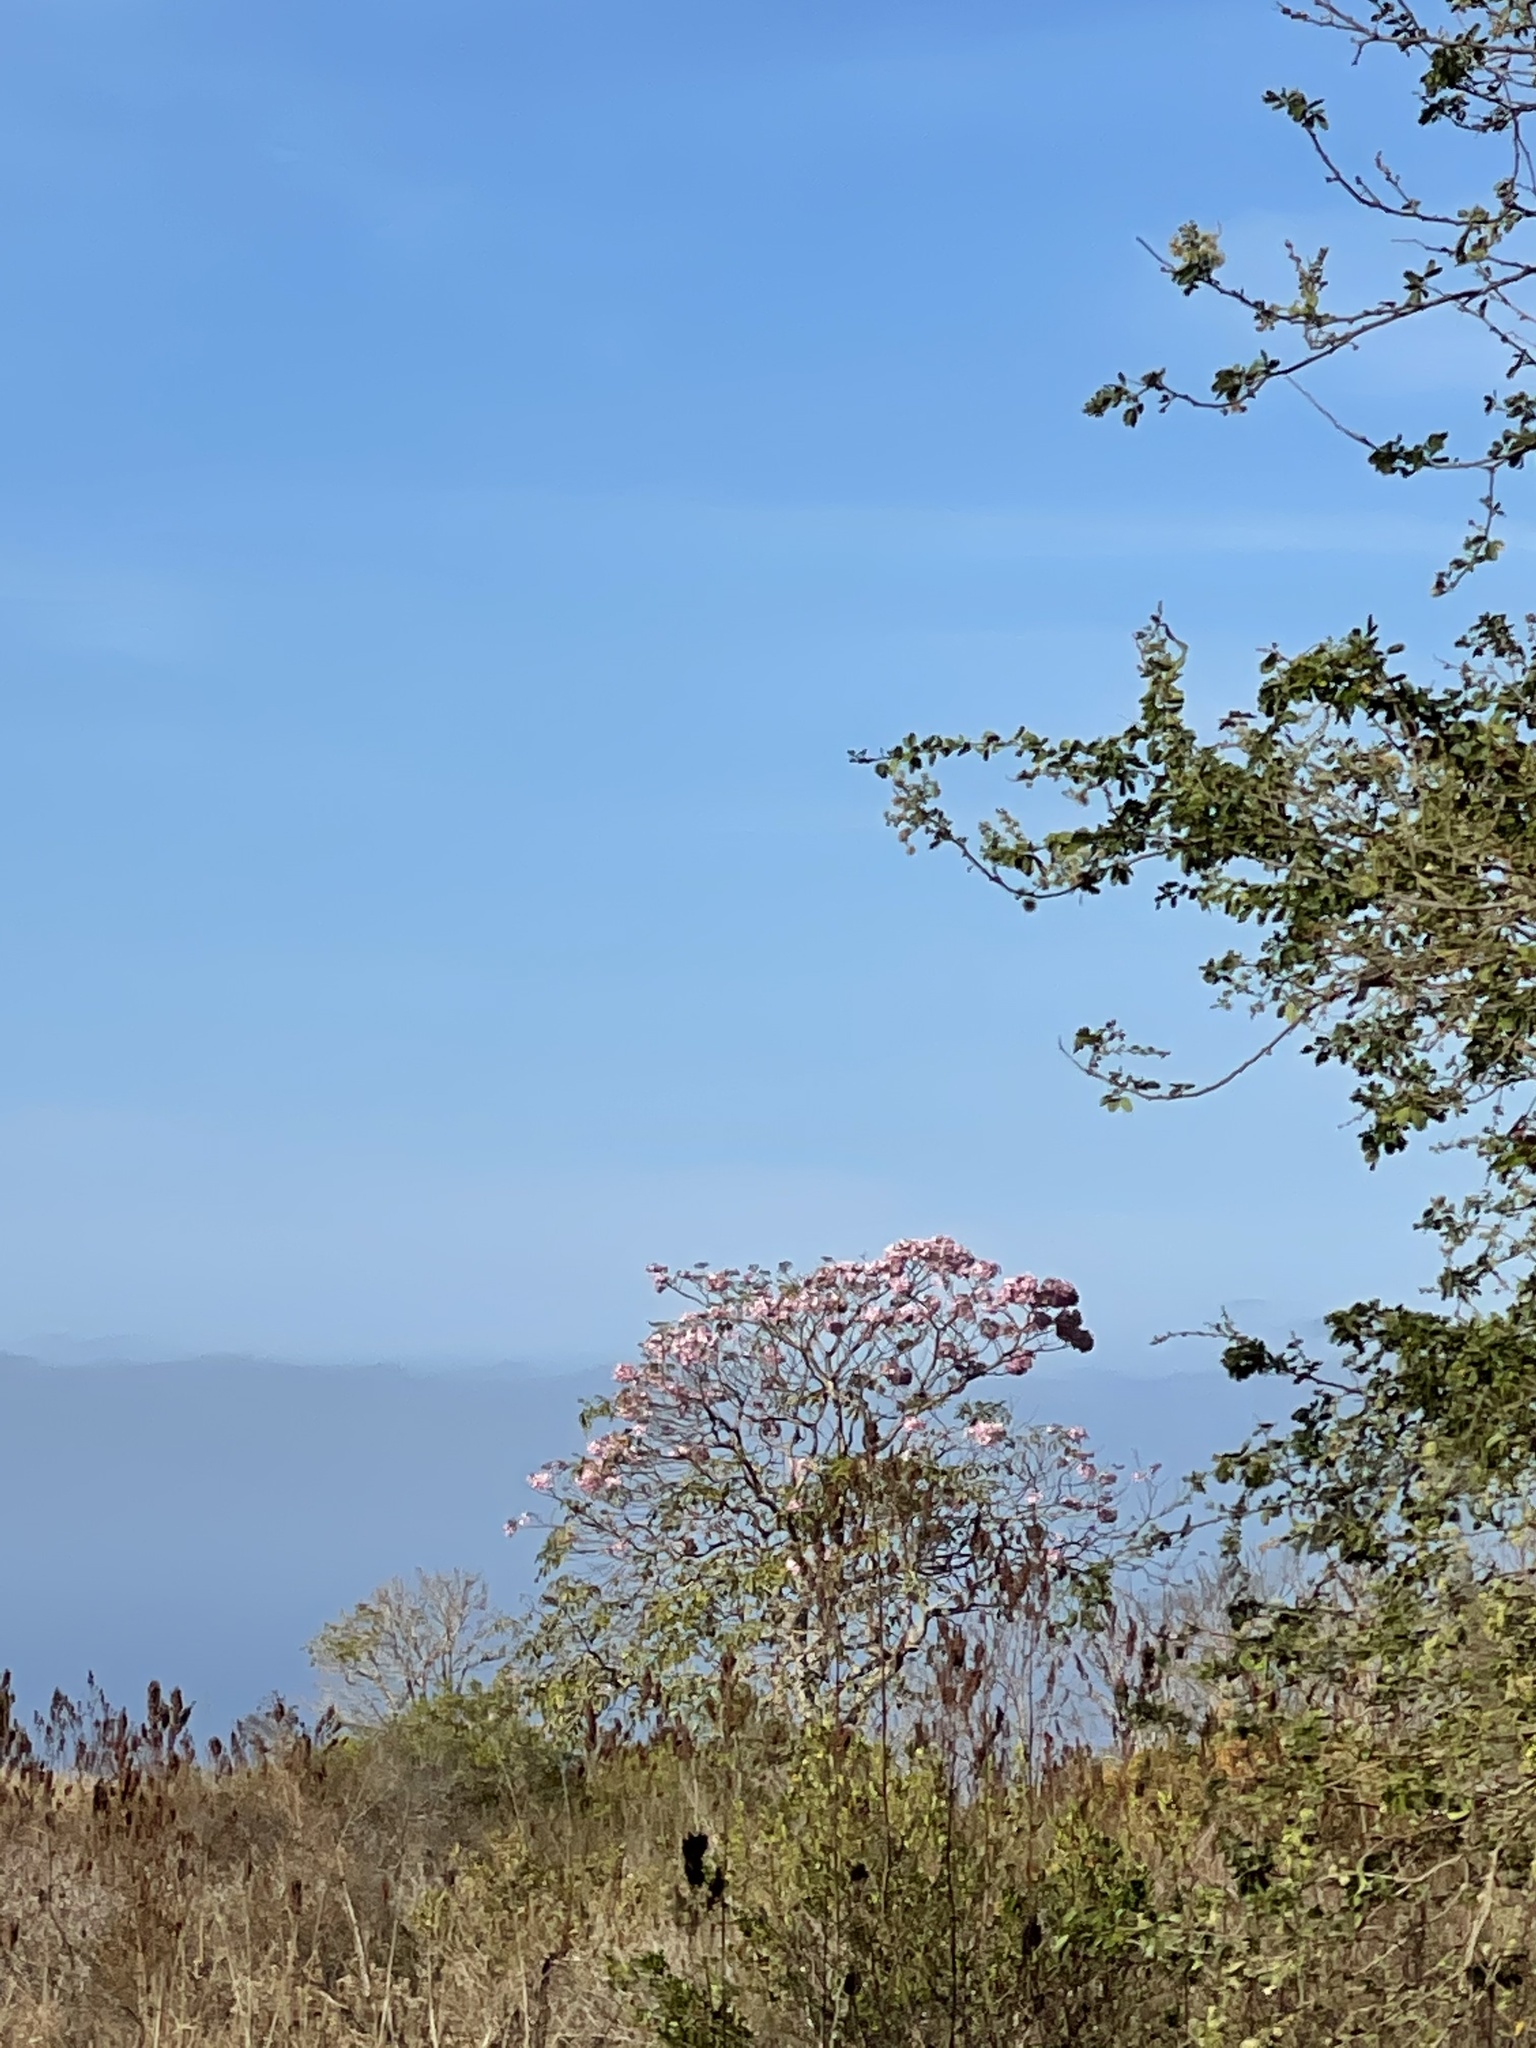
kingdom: Plantae
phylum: Tracheophyta
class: Magnoliopsida
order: Lamiales
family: Bignoniaceae
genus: Tabebuia
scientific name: Tabebuia rosea
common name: Pink poui
